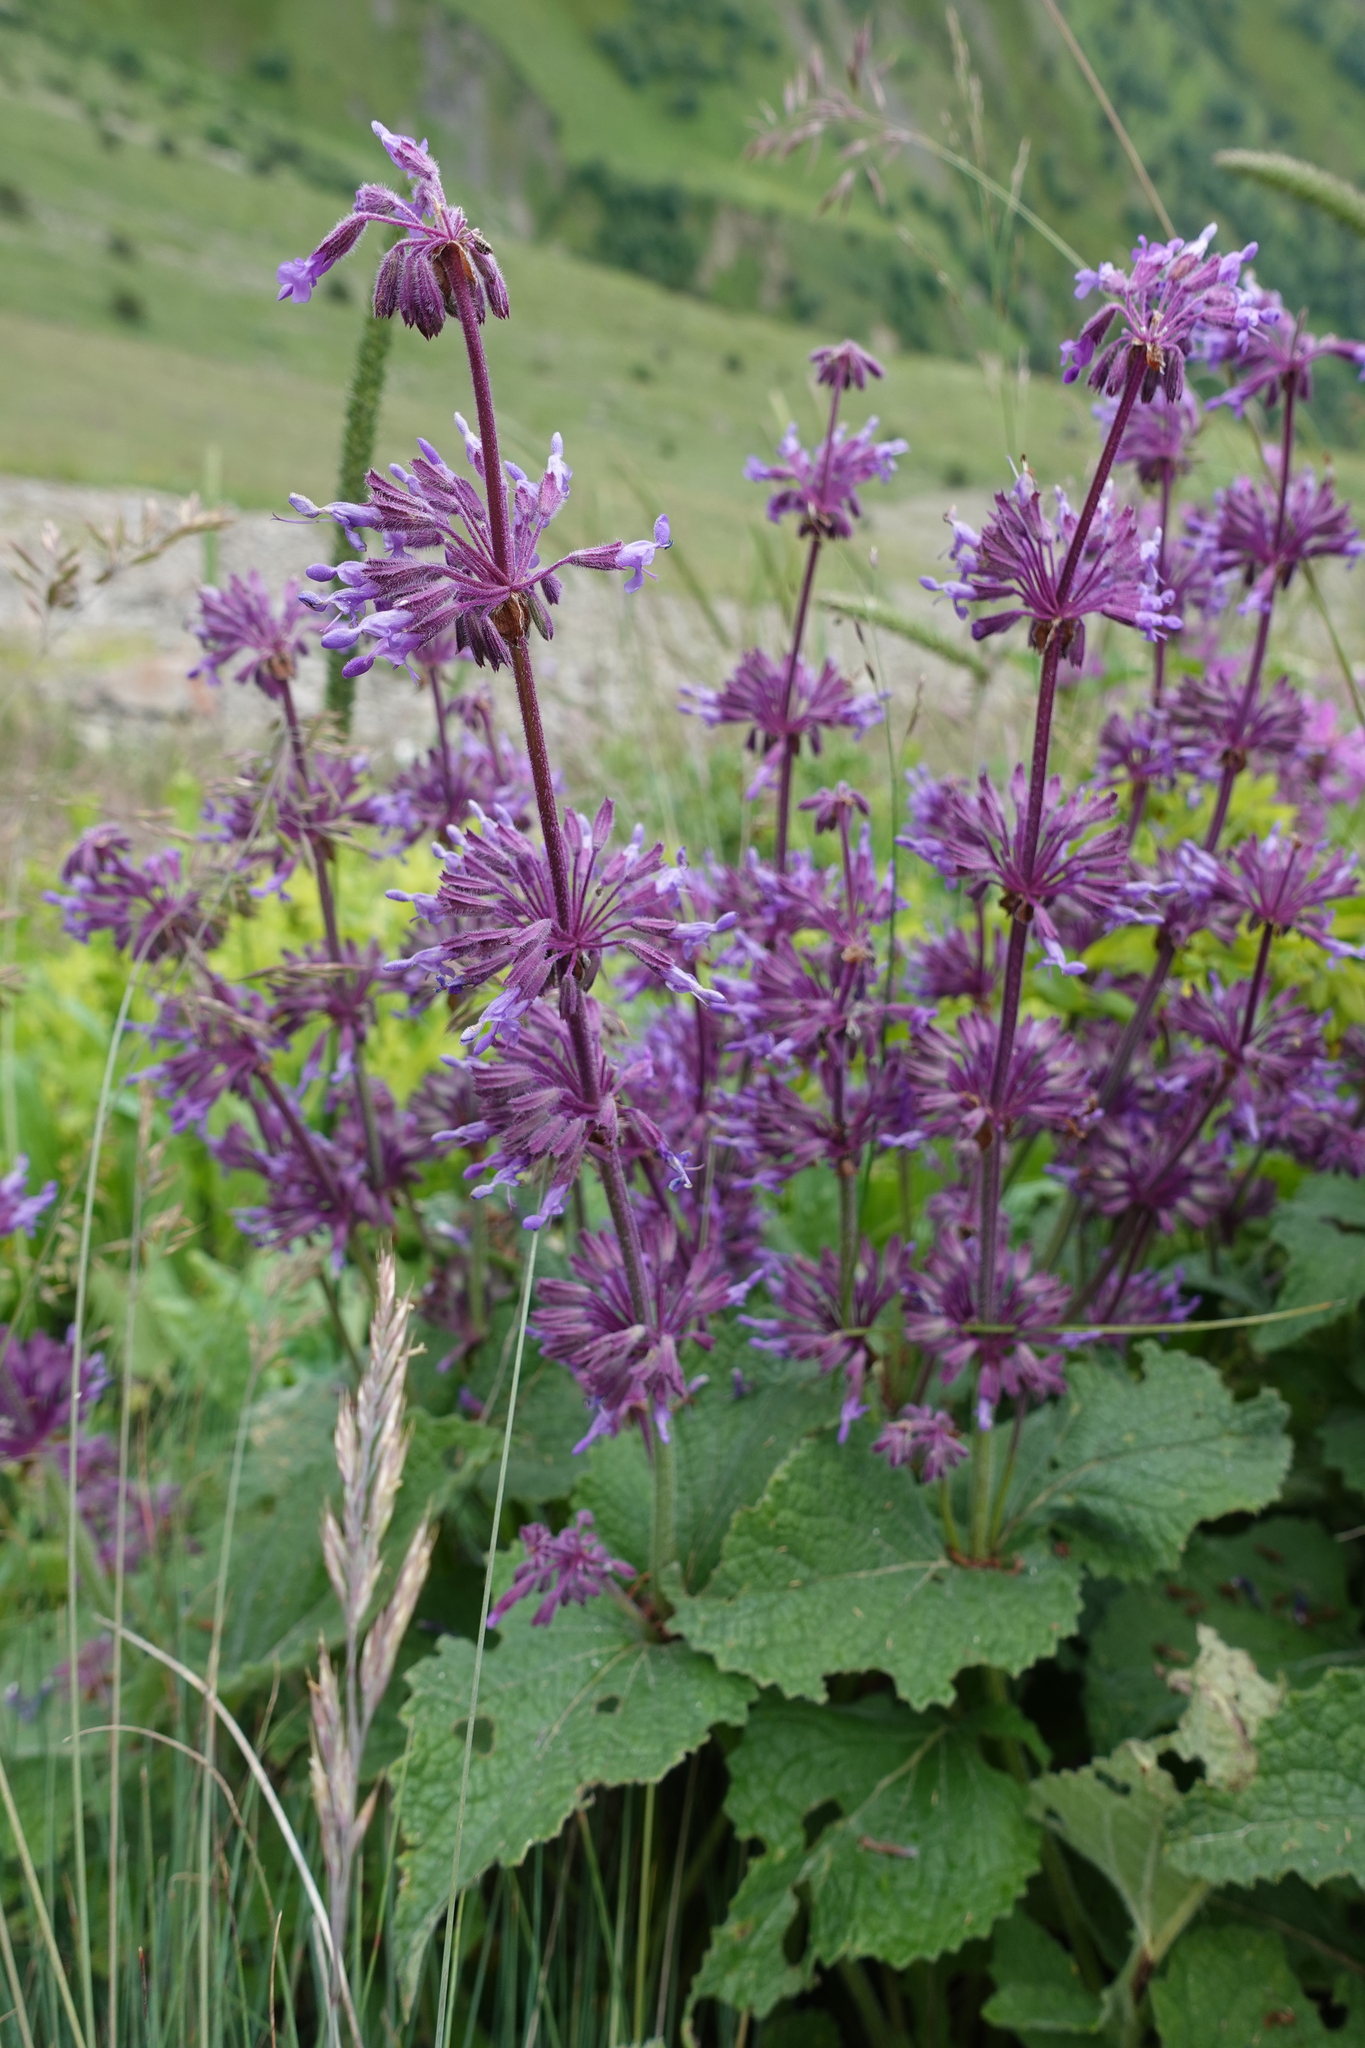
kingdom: Plantae
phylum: Tracheophyta
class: Magnoliopsida
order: Lamiales
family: Lamiaceae
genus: Salvia
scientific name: Salvia verticillata
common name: Whorled clary
